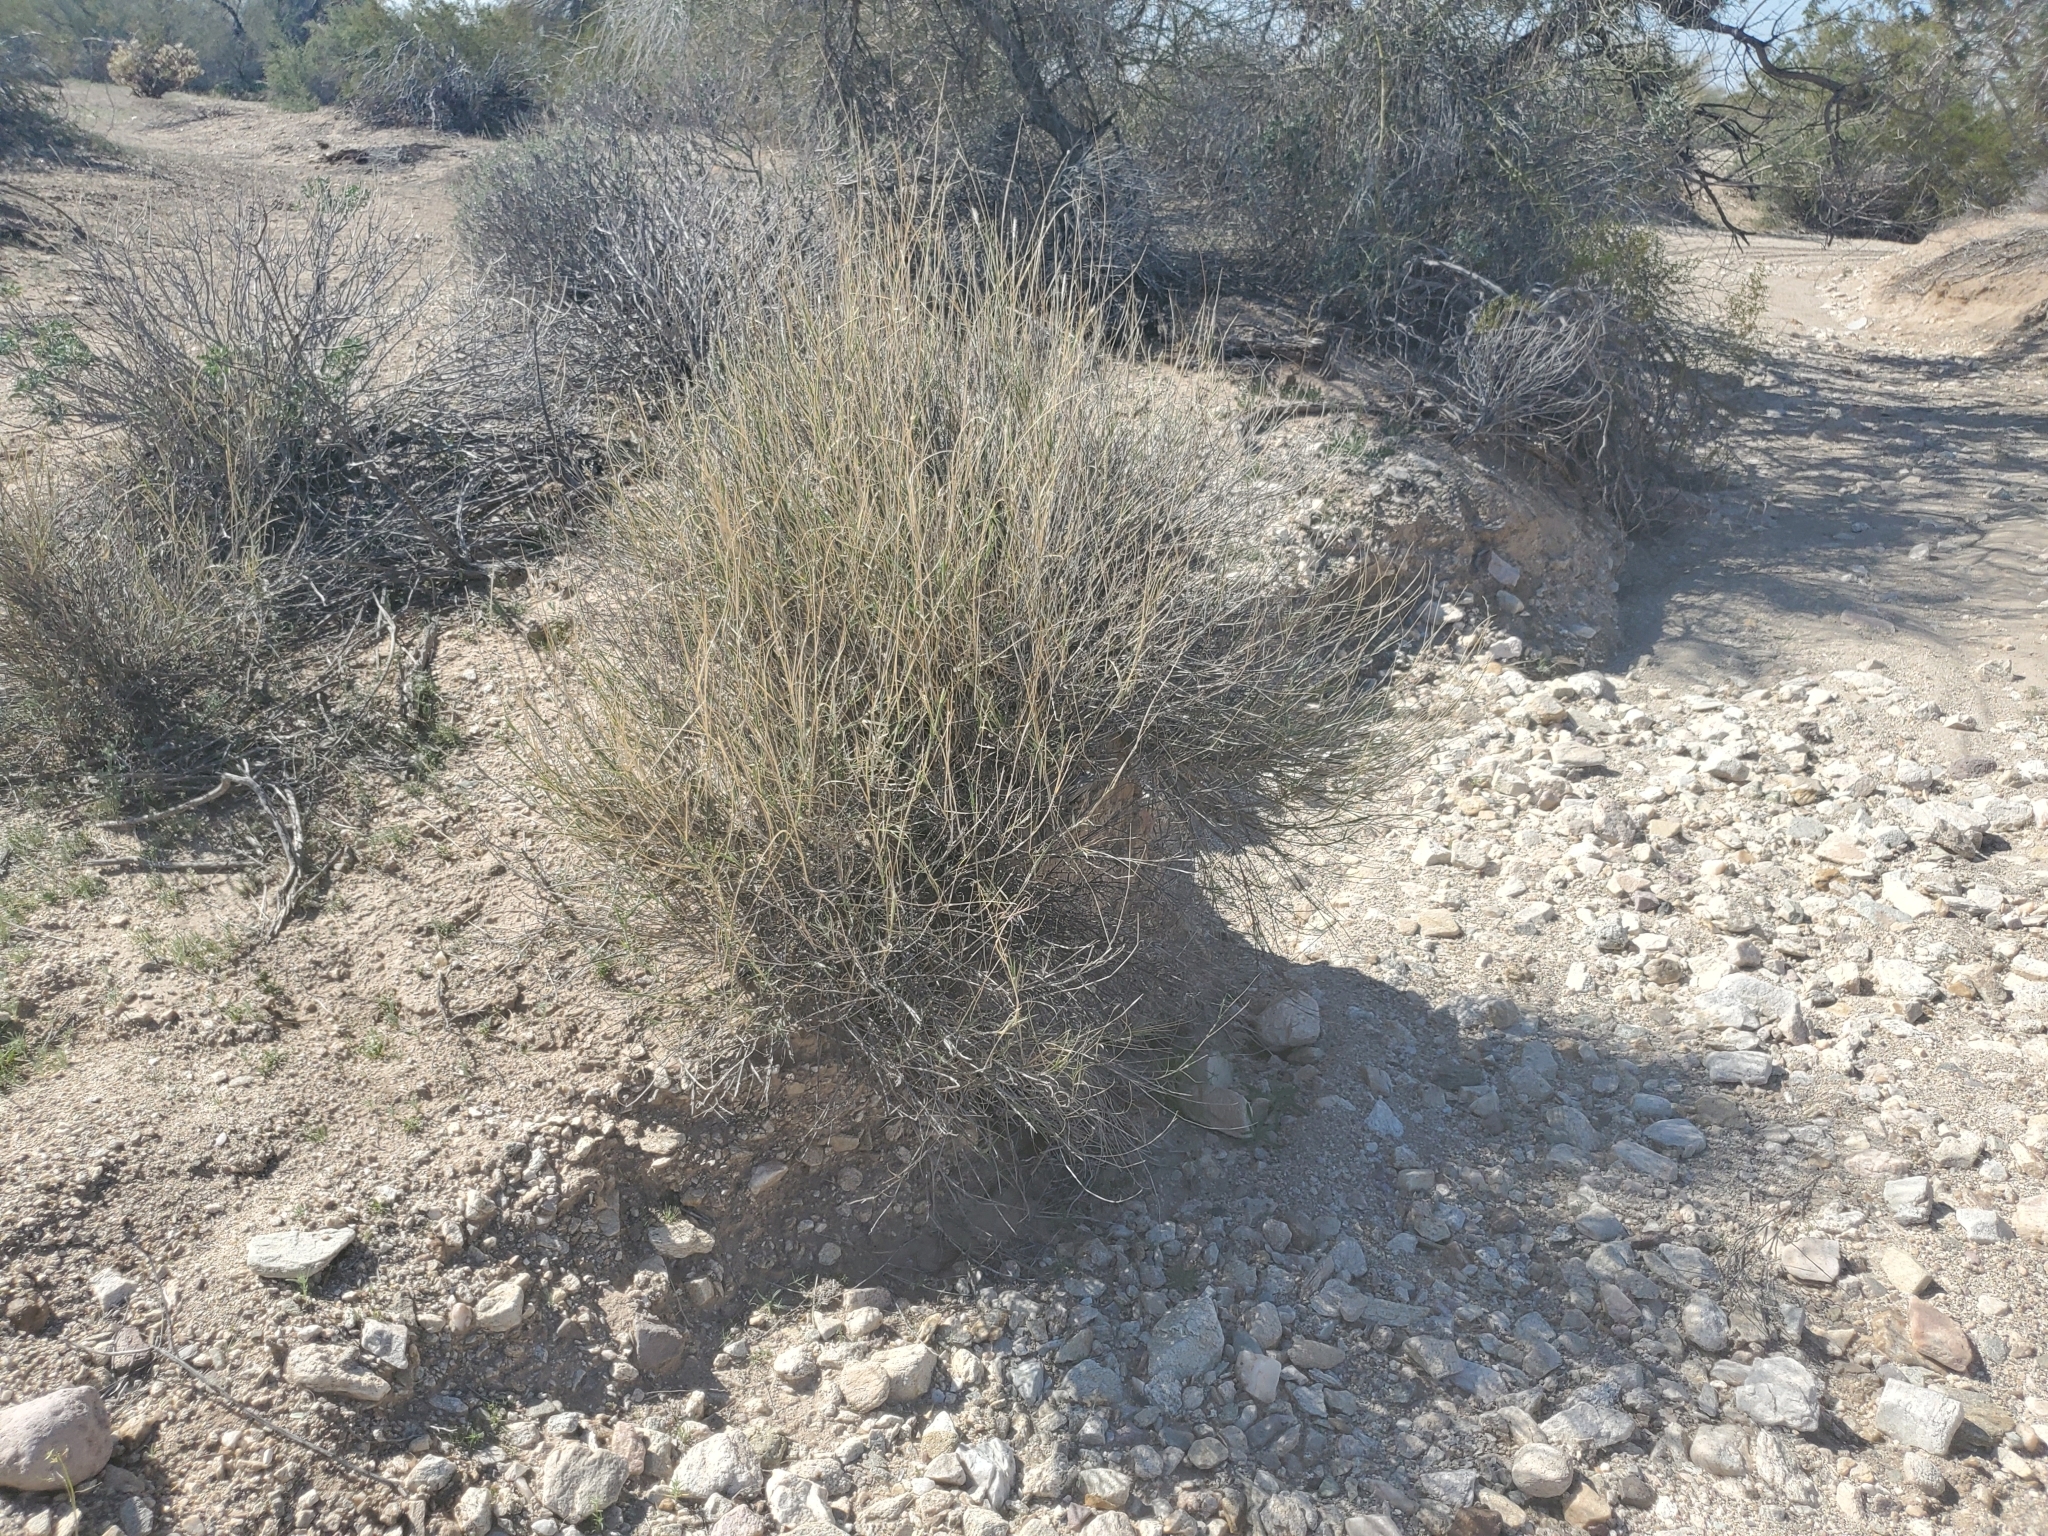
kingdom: Plantae
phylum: Tracheophyta
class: Liliopsida
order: Poales
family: Poaceae
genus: Hilaria
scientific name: Hilaria rigida
